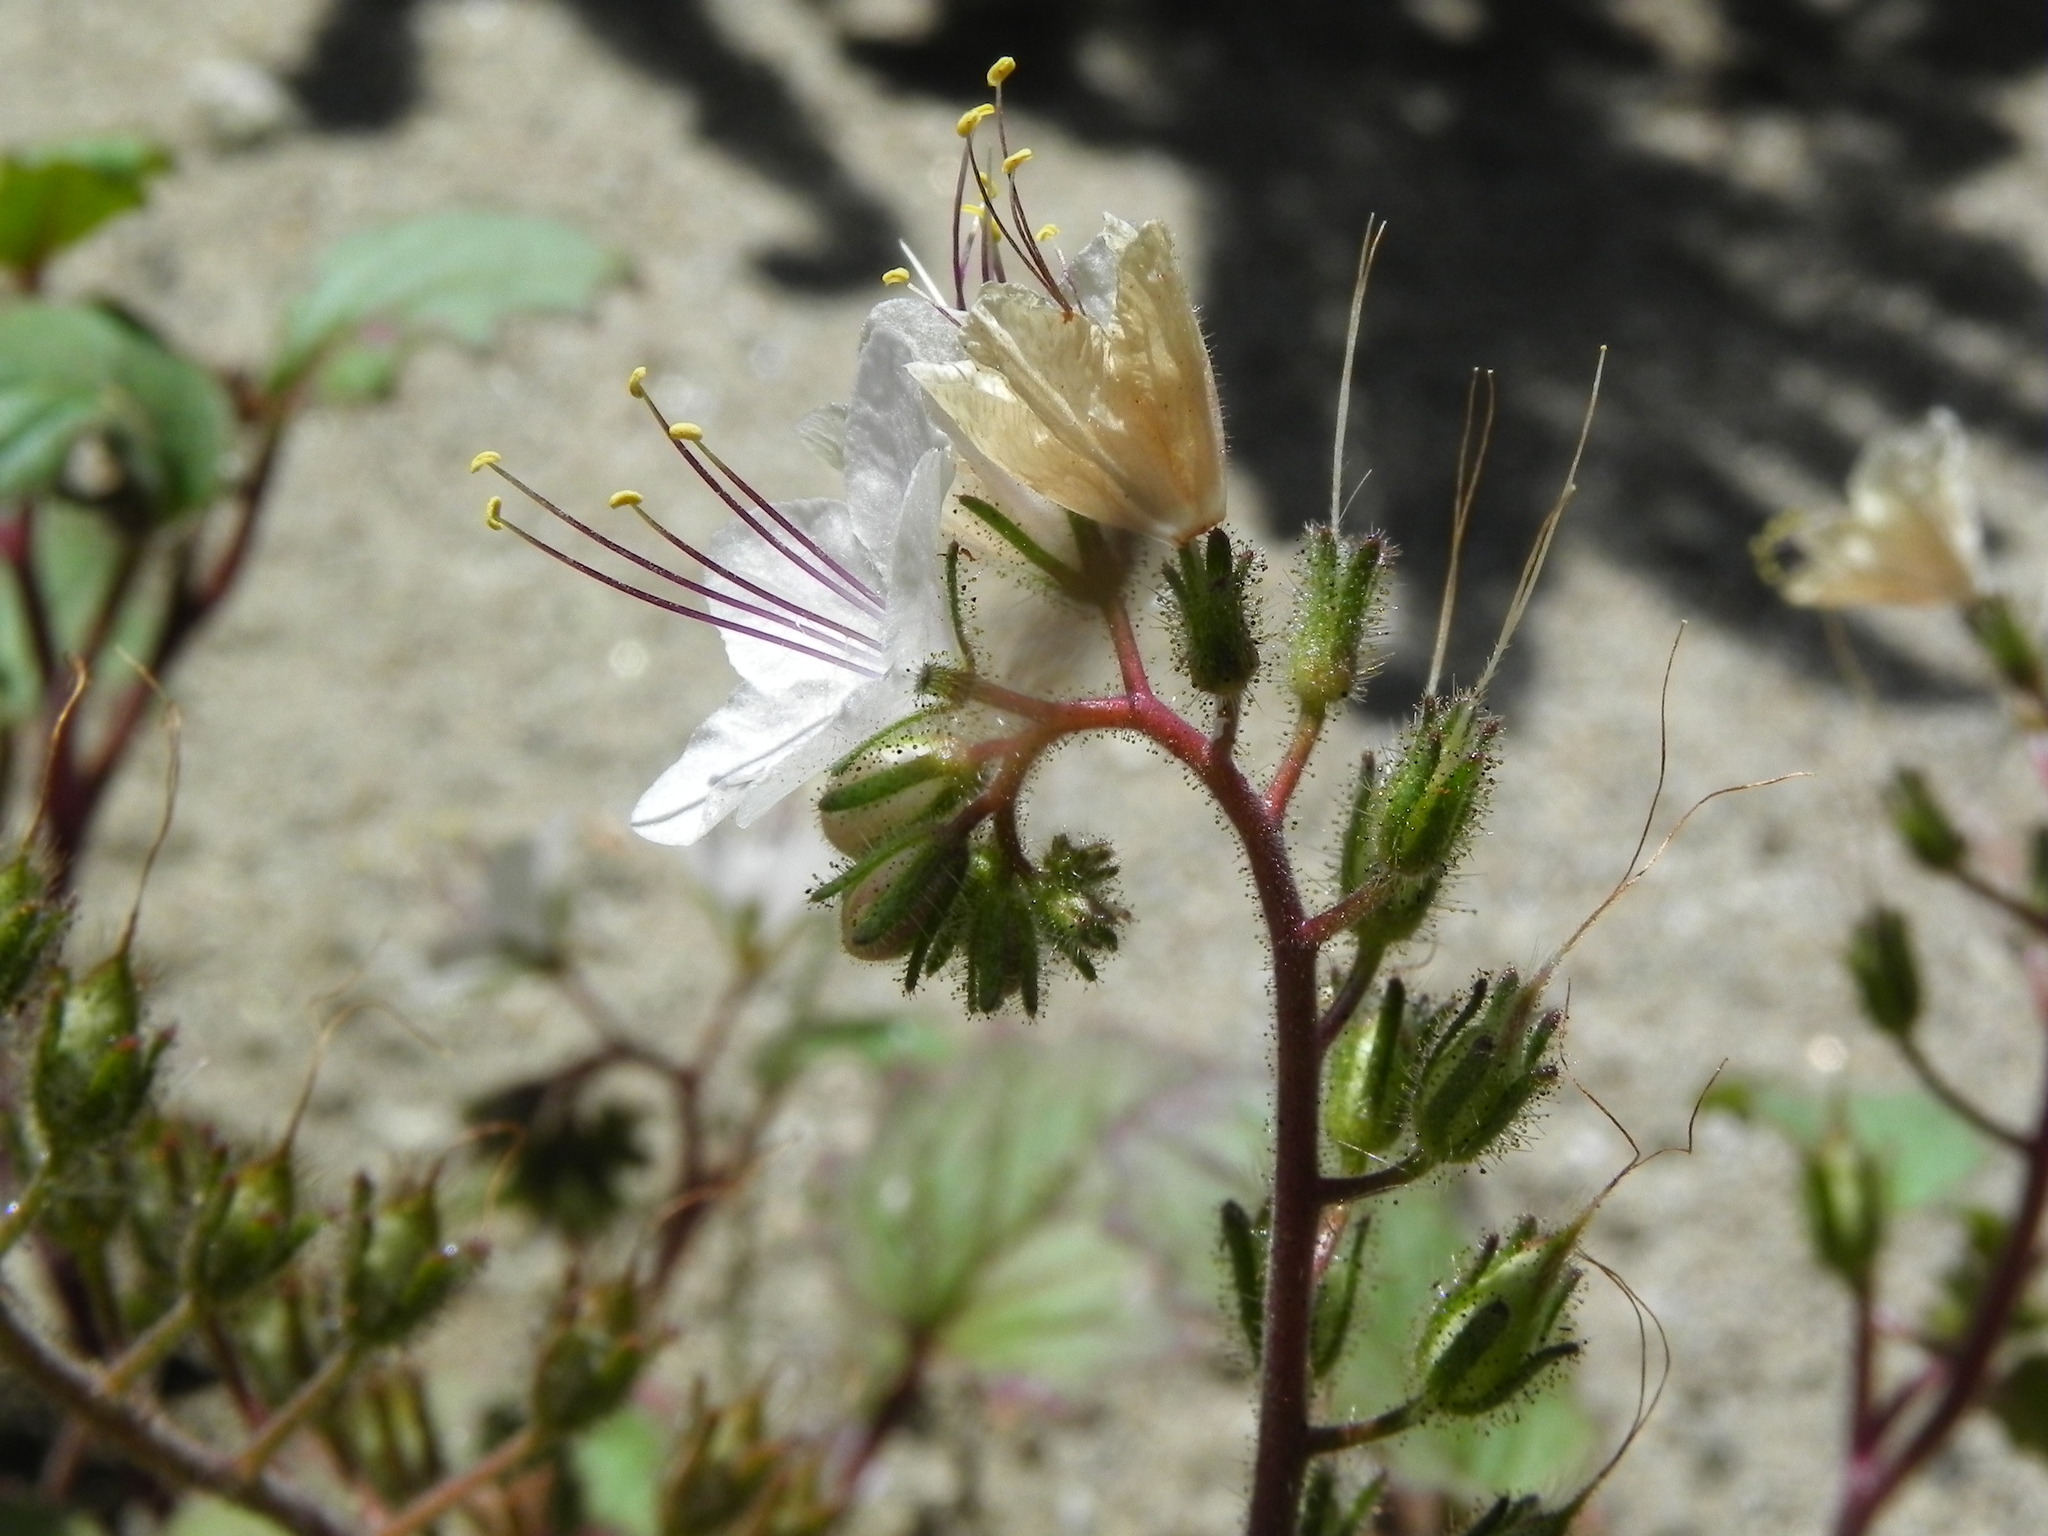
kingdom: Plantae
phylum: Tracheophyta
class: Magnoliopsida
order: Boraginales
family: Hydrophyllaceae
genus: Phacelia
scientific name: Phacelia longipes
